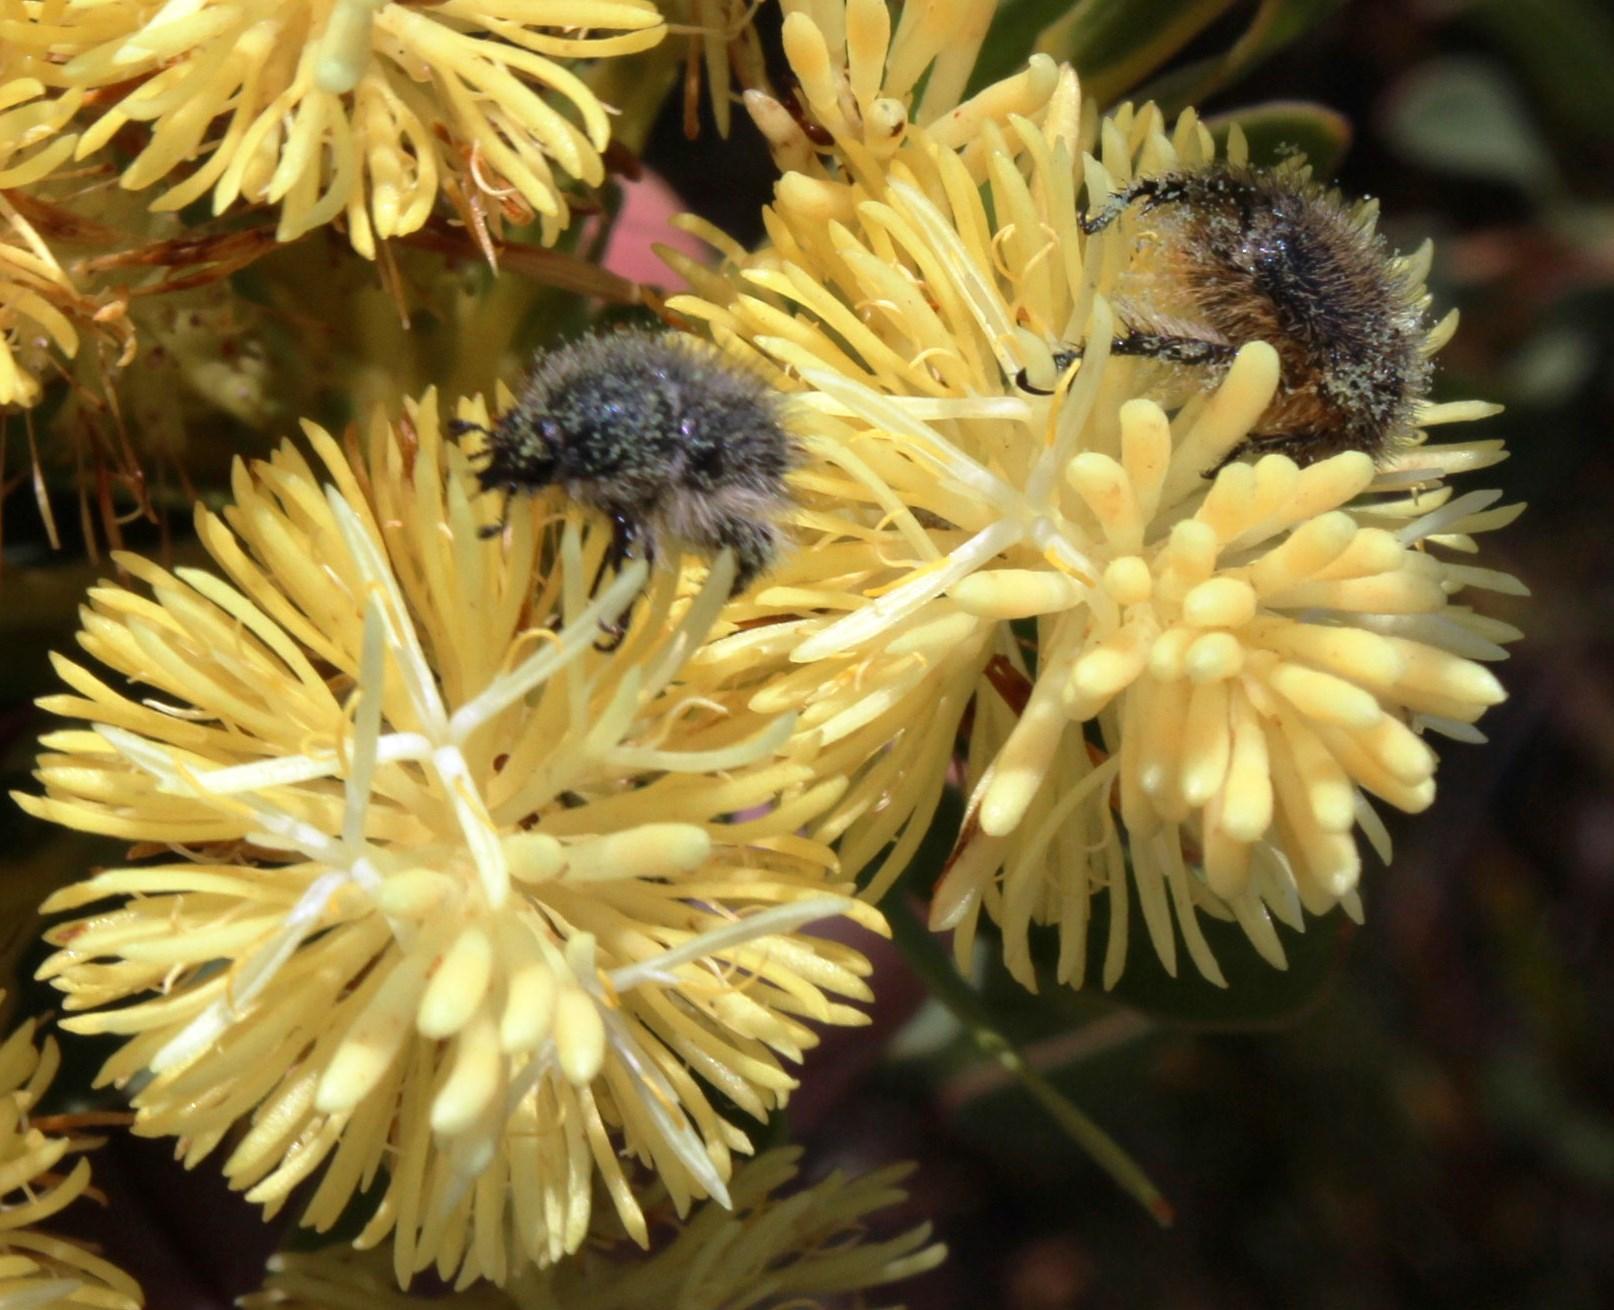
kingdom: Plantae
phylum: Tracheophyta
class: Magnoliopsida
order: Proteales
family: Proteaceae
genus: Aulax
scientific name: Aulax umbellata
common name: Broad-leaf featherbush
